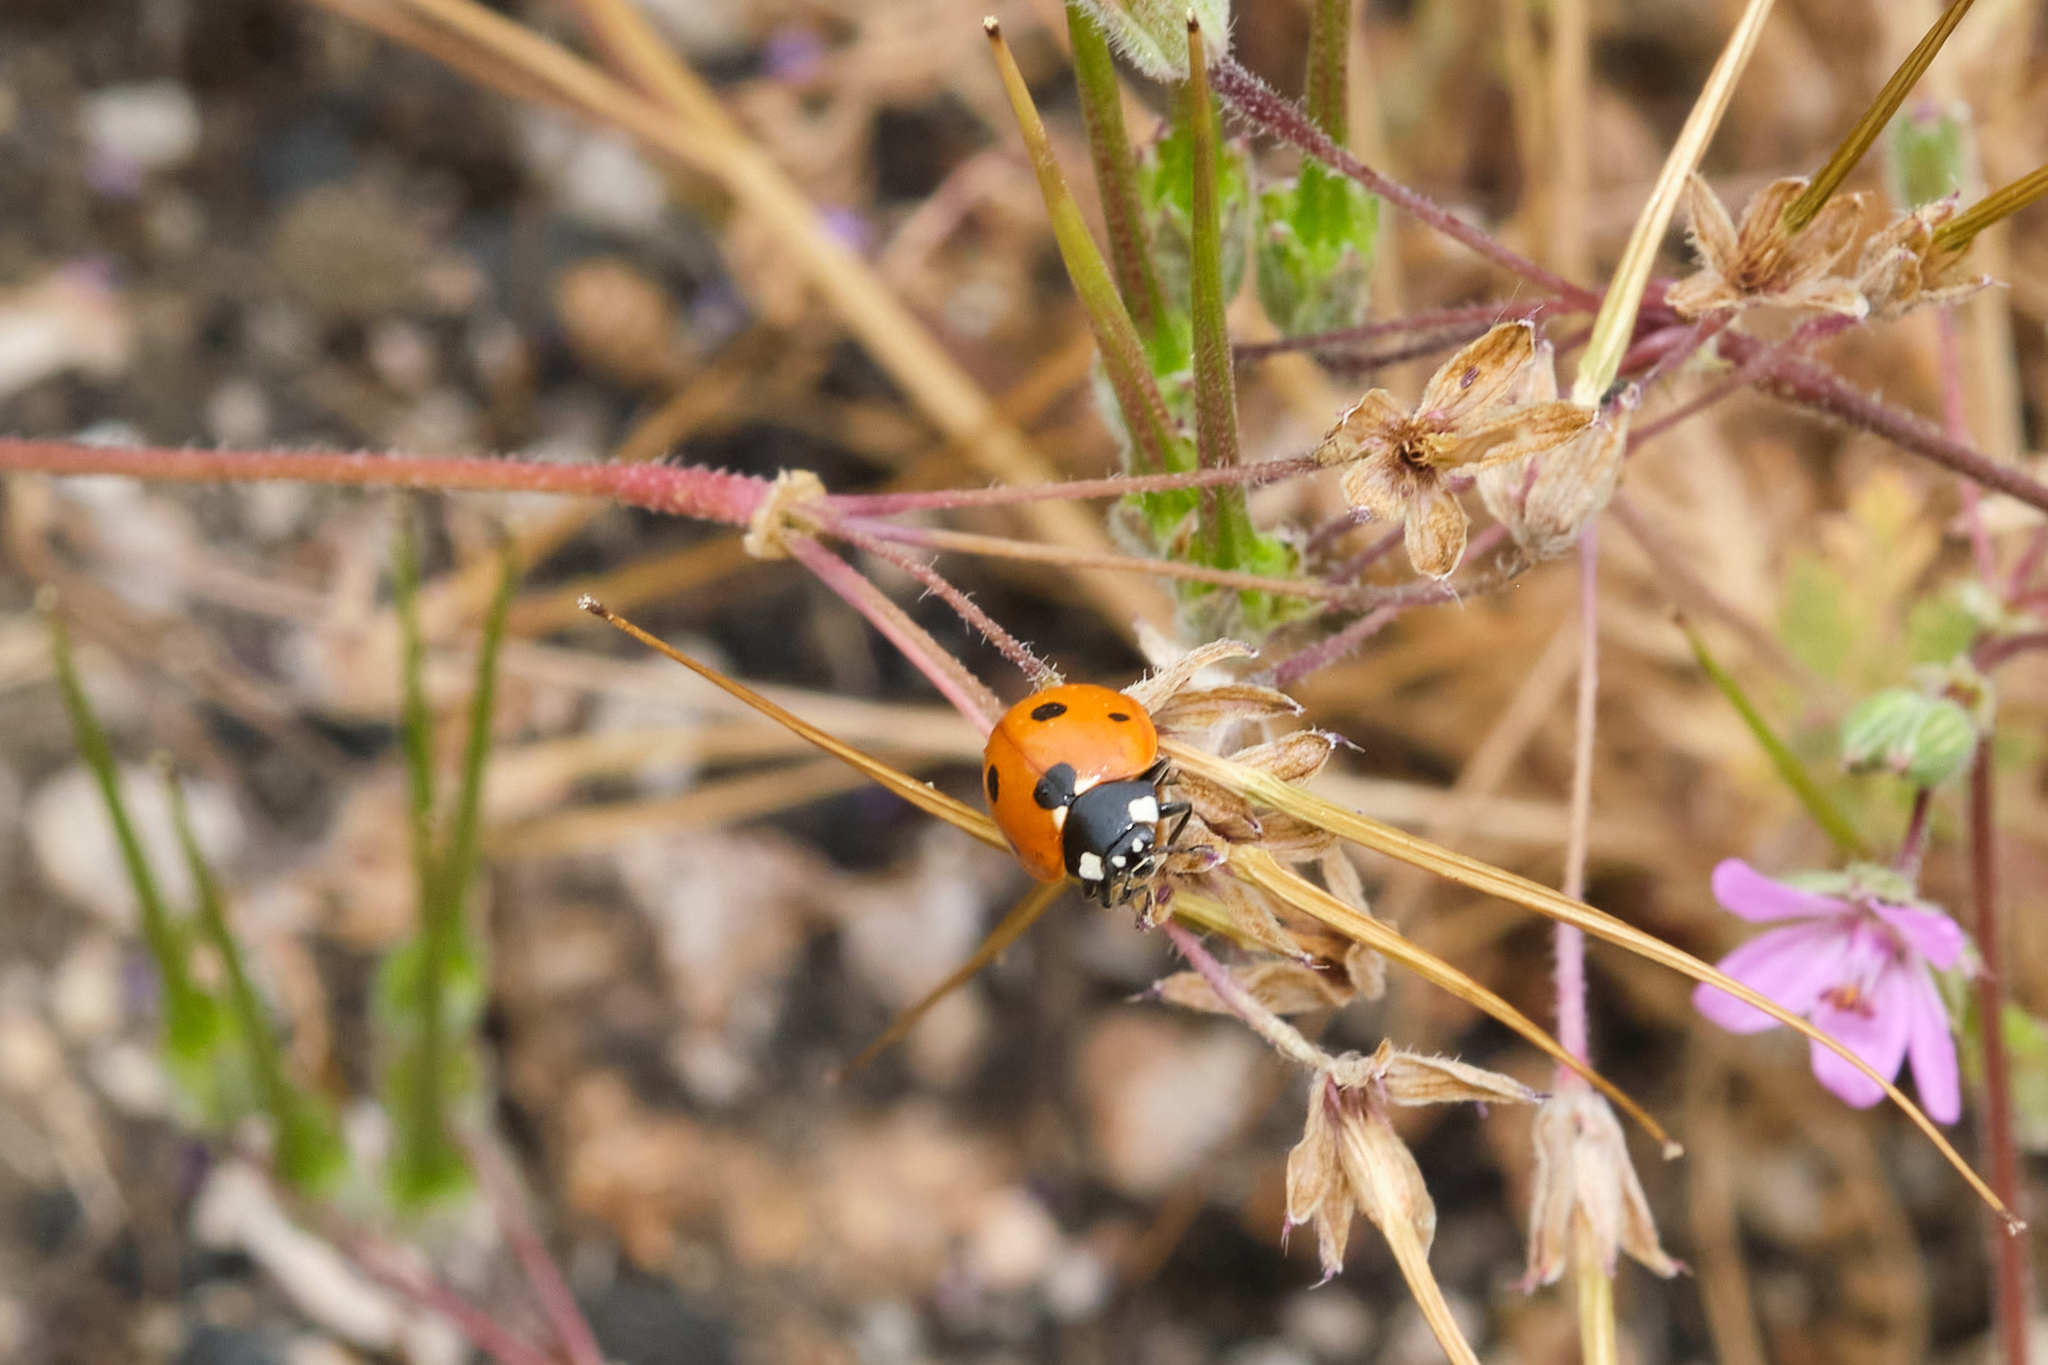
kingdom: Animalia
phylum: Arthropoda
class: Insecta
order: Coleoptera
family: Coccinellidae
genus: Coccinella
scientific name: Coccinella septempunctata
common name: Sevenspotted lady beetle
